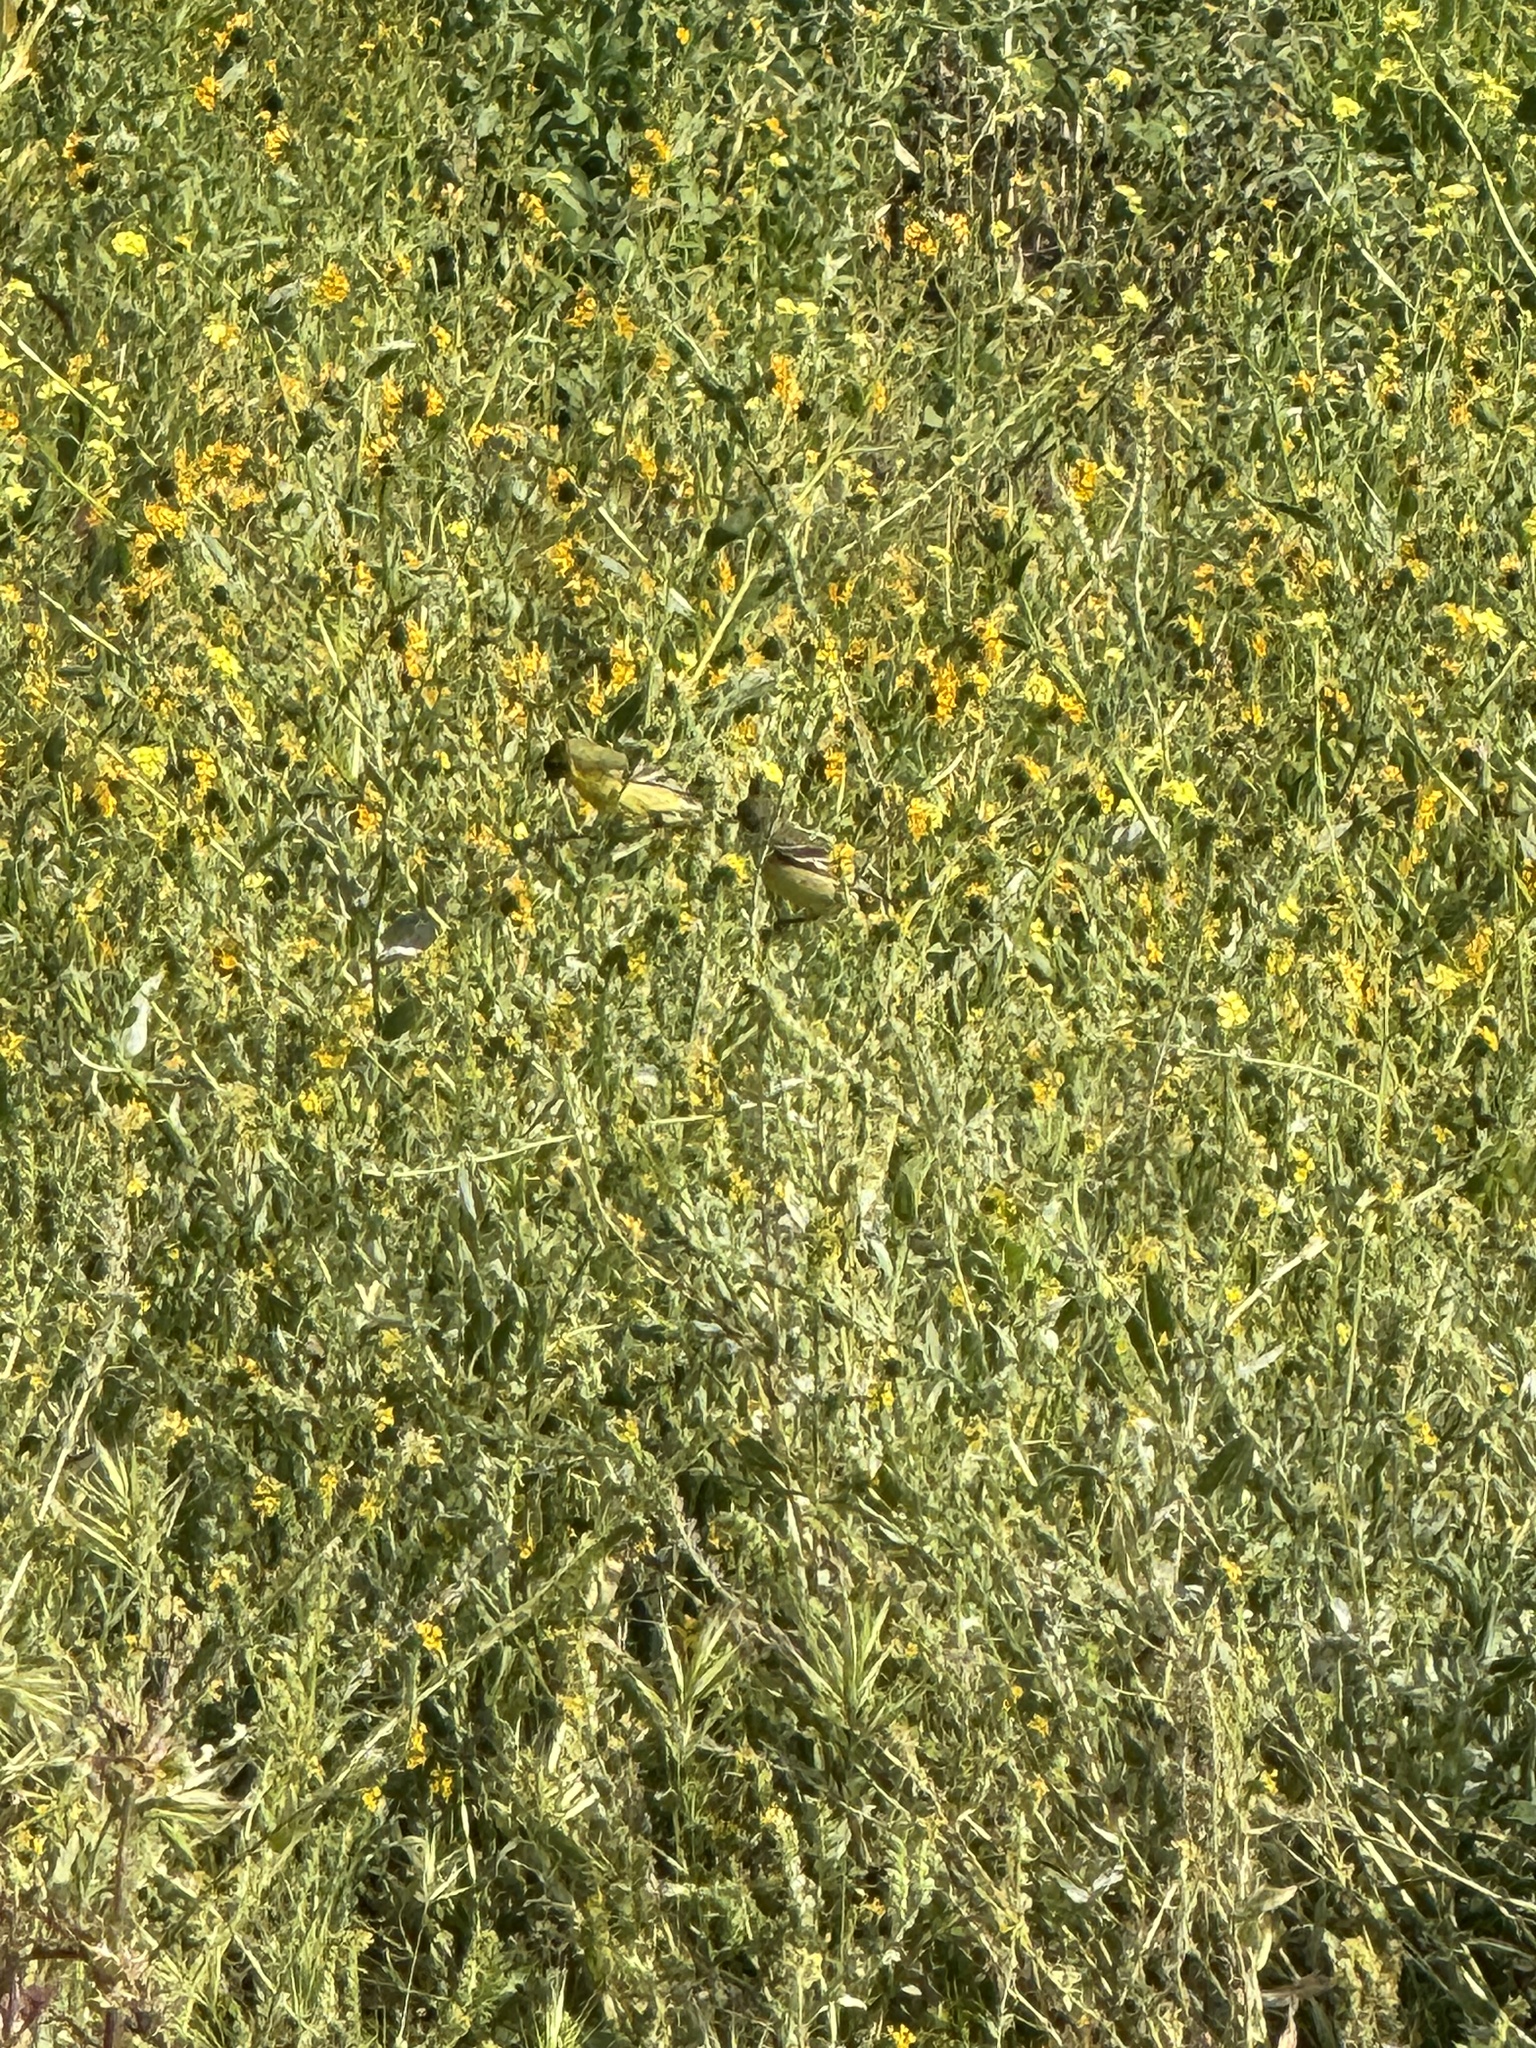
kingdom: Animalia
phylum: Chordata
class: Aves
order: Passeriformes
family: Fringillidae
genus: Spinus
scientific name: Spinus psaltria
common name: Lesser goldfinch
